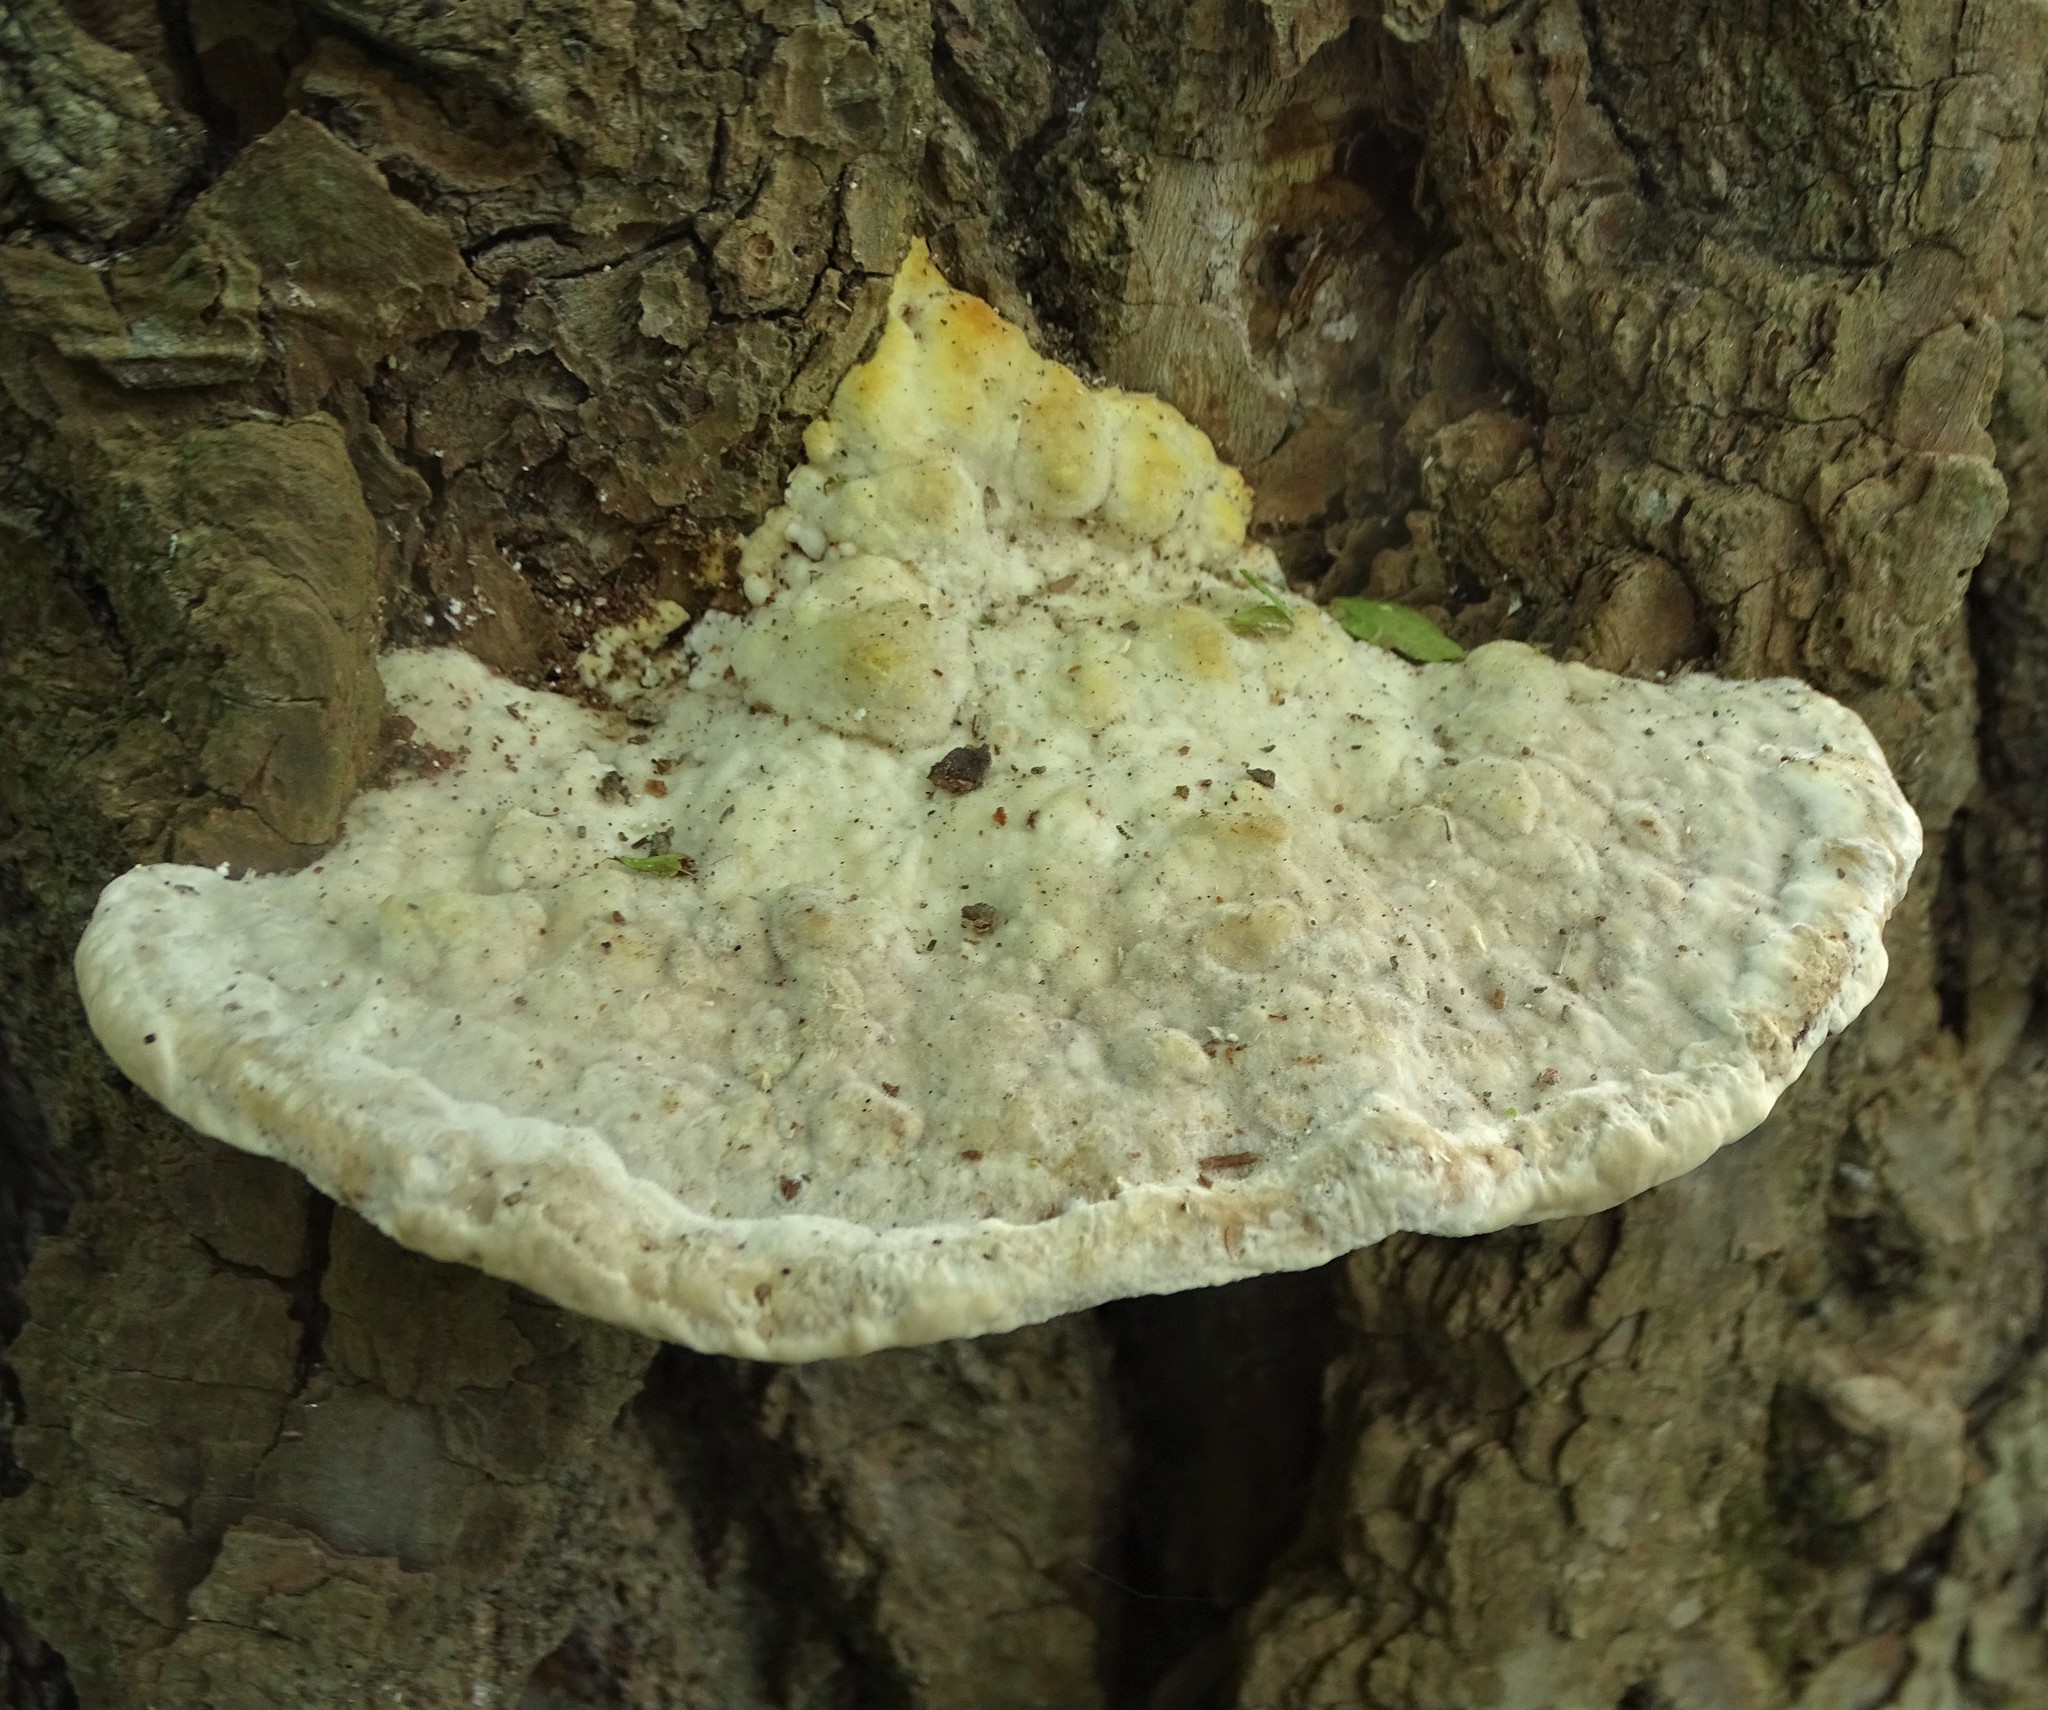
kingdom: Fungi
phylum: Basidiomycota
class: Agaricomycetes
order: Polyporales
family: Polyporaceae
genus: Trametes
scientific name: Trametes gibbosa
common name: Lumpy bracket
